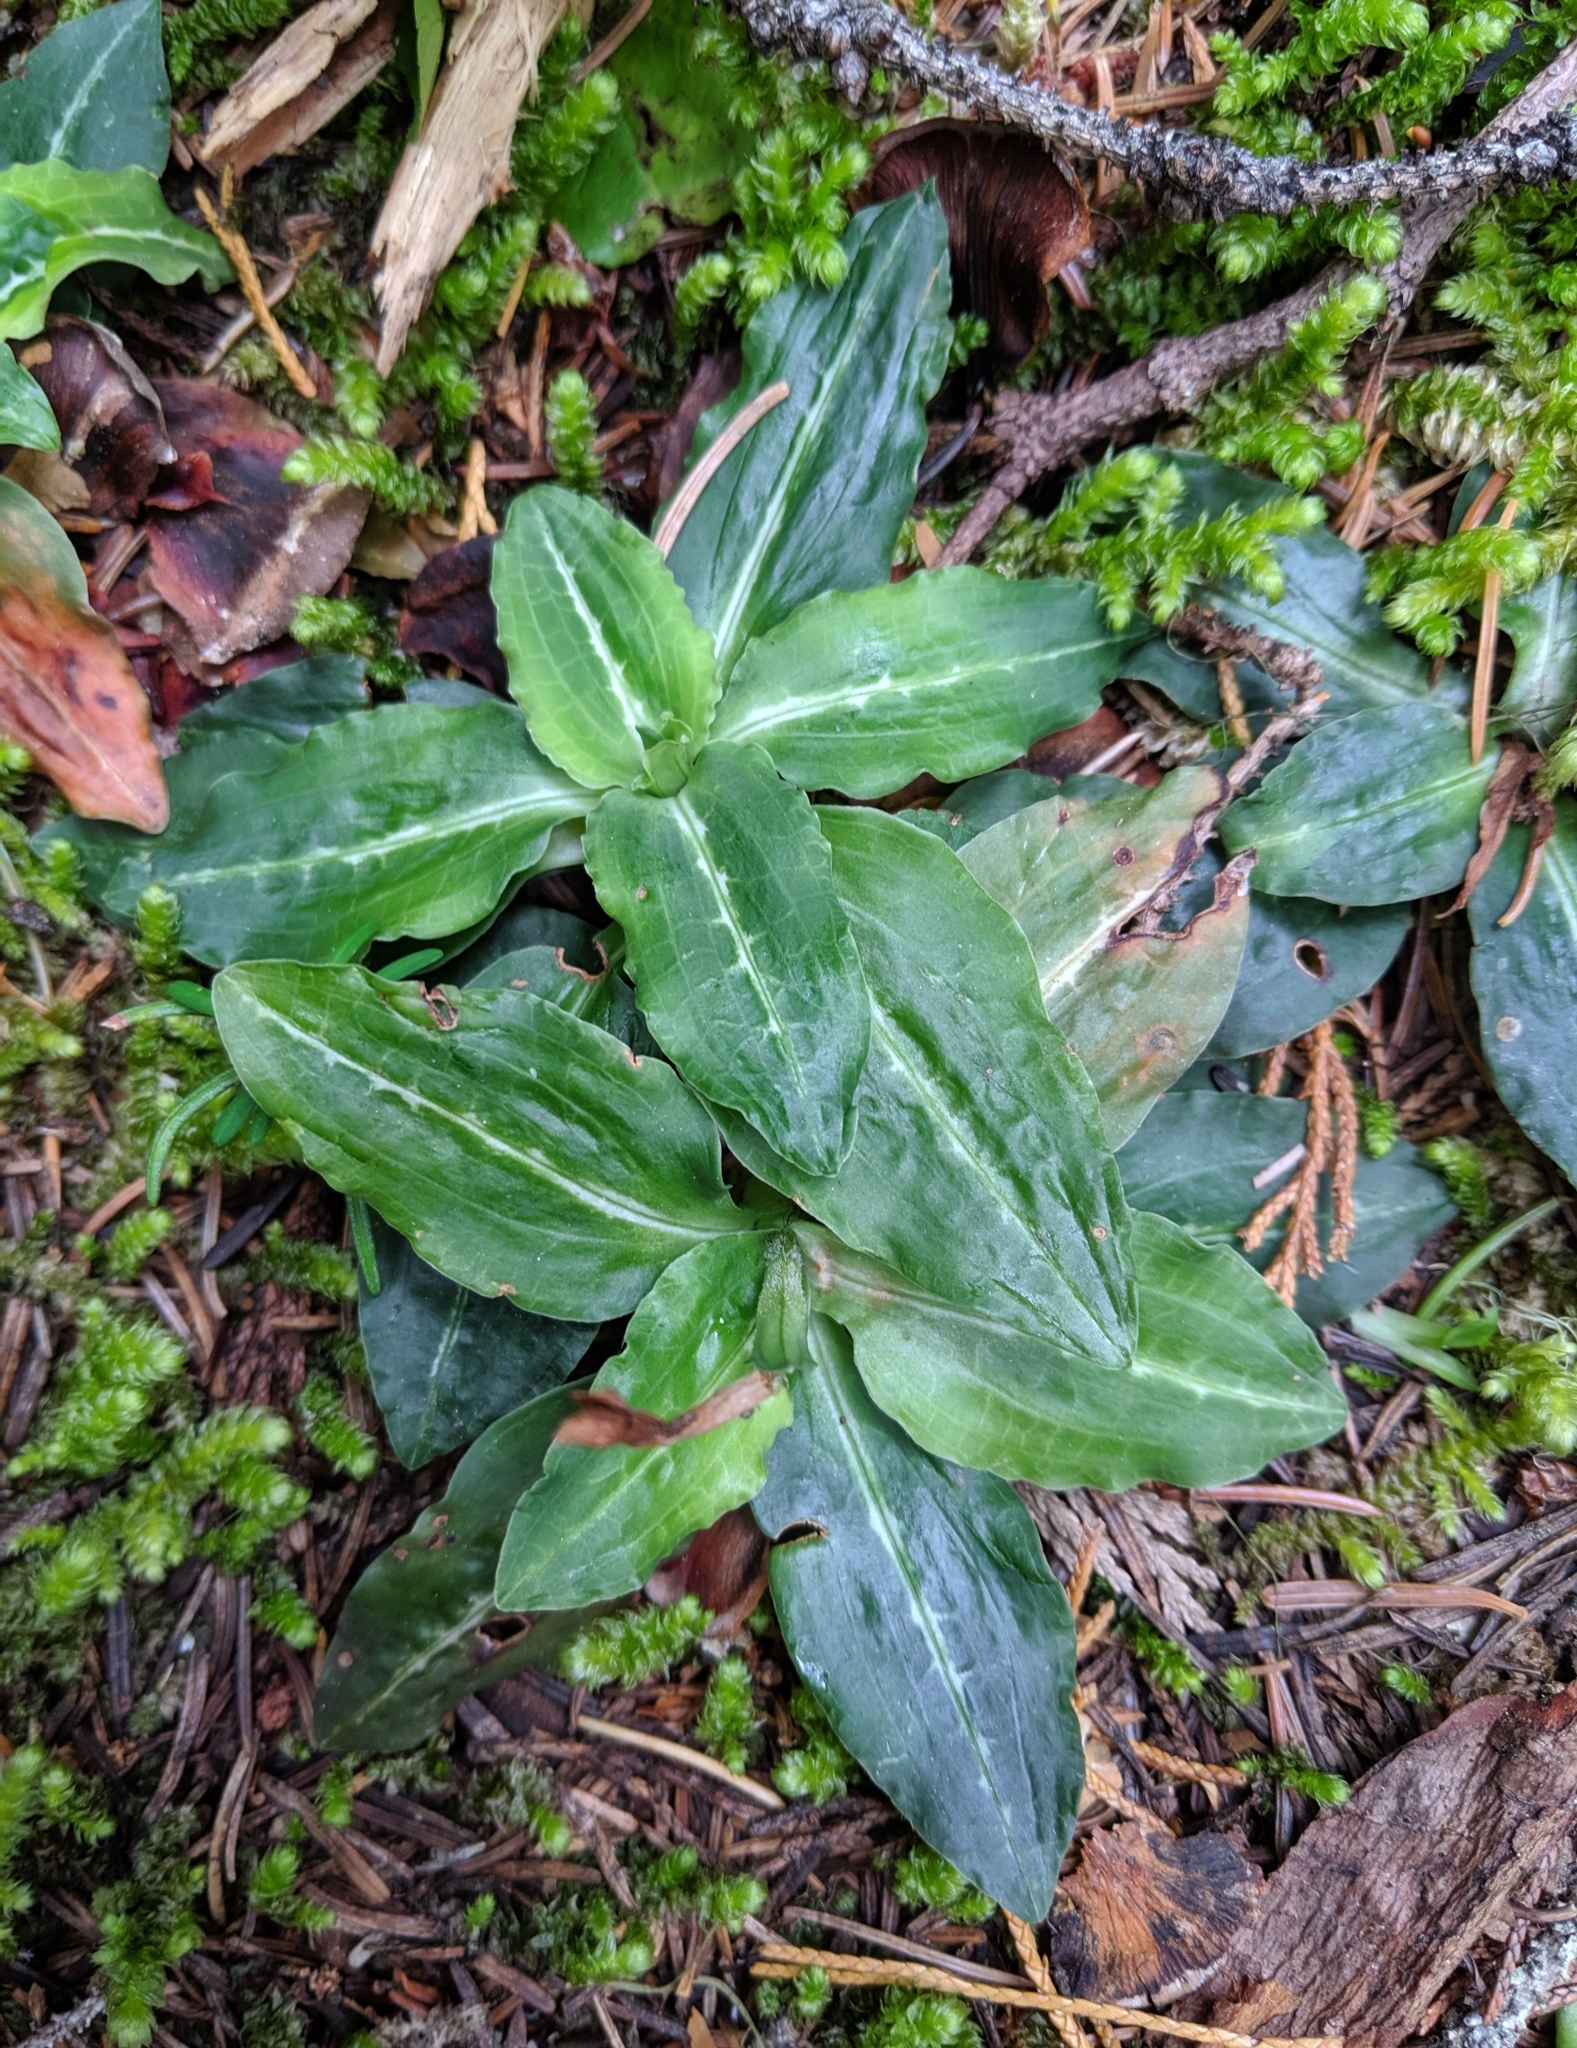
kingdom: Plantae
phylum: Tracheophyta
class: Liliopsida
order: Asparagales
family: Orchidaceae
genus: Goodyera
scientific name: Goodyera oblongifolia
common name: Giant rattlesnake-plantain
